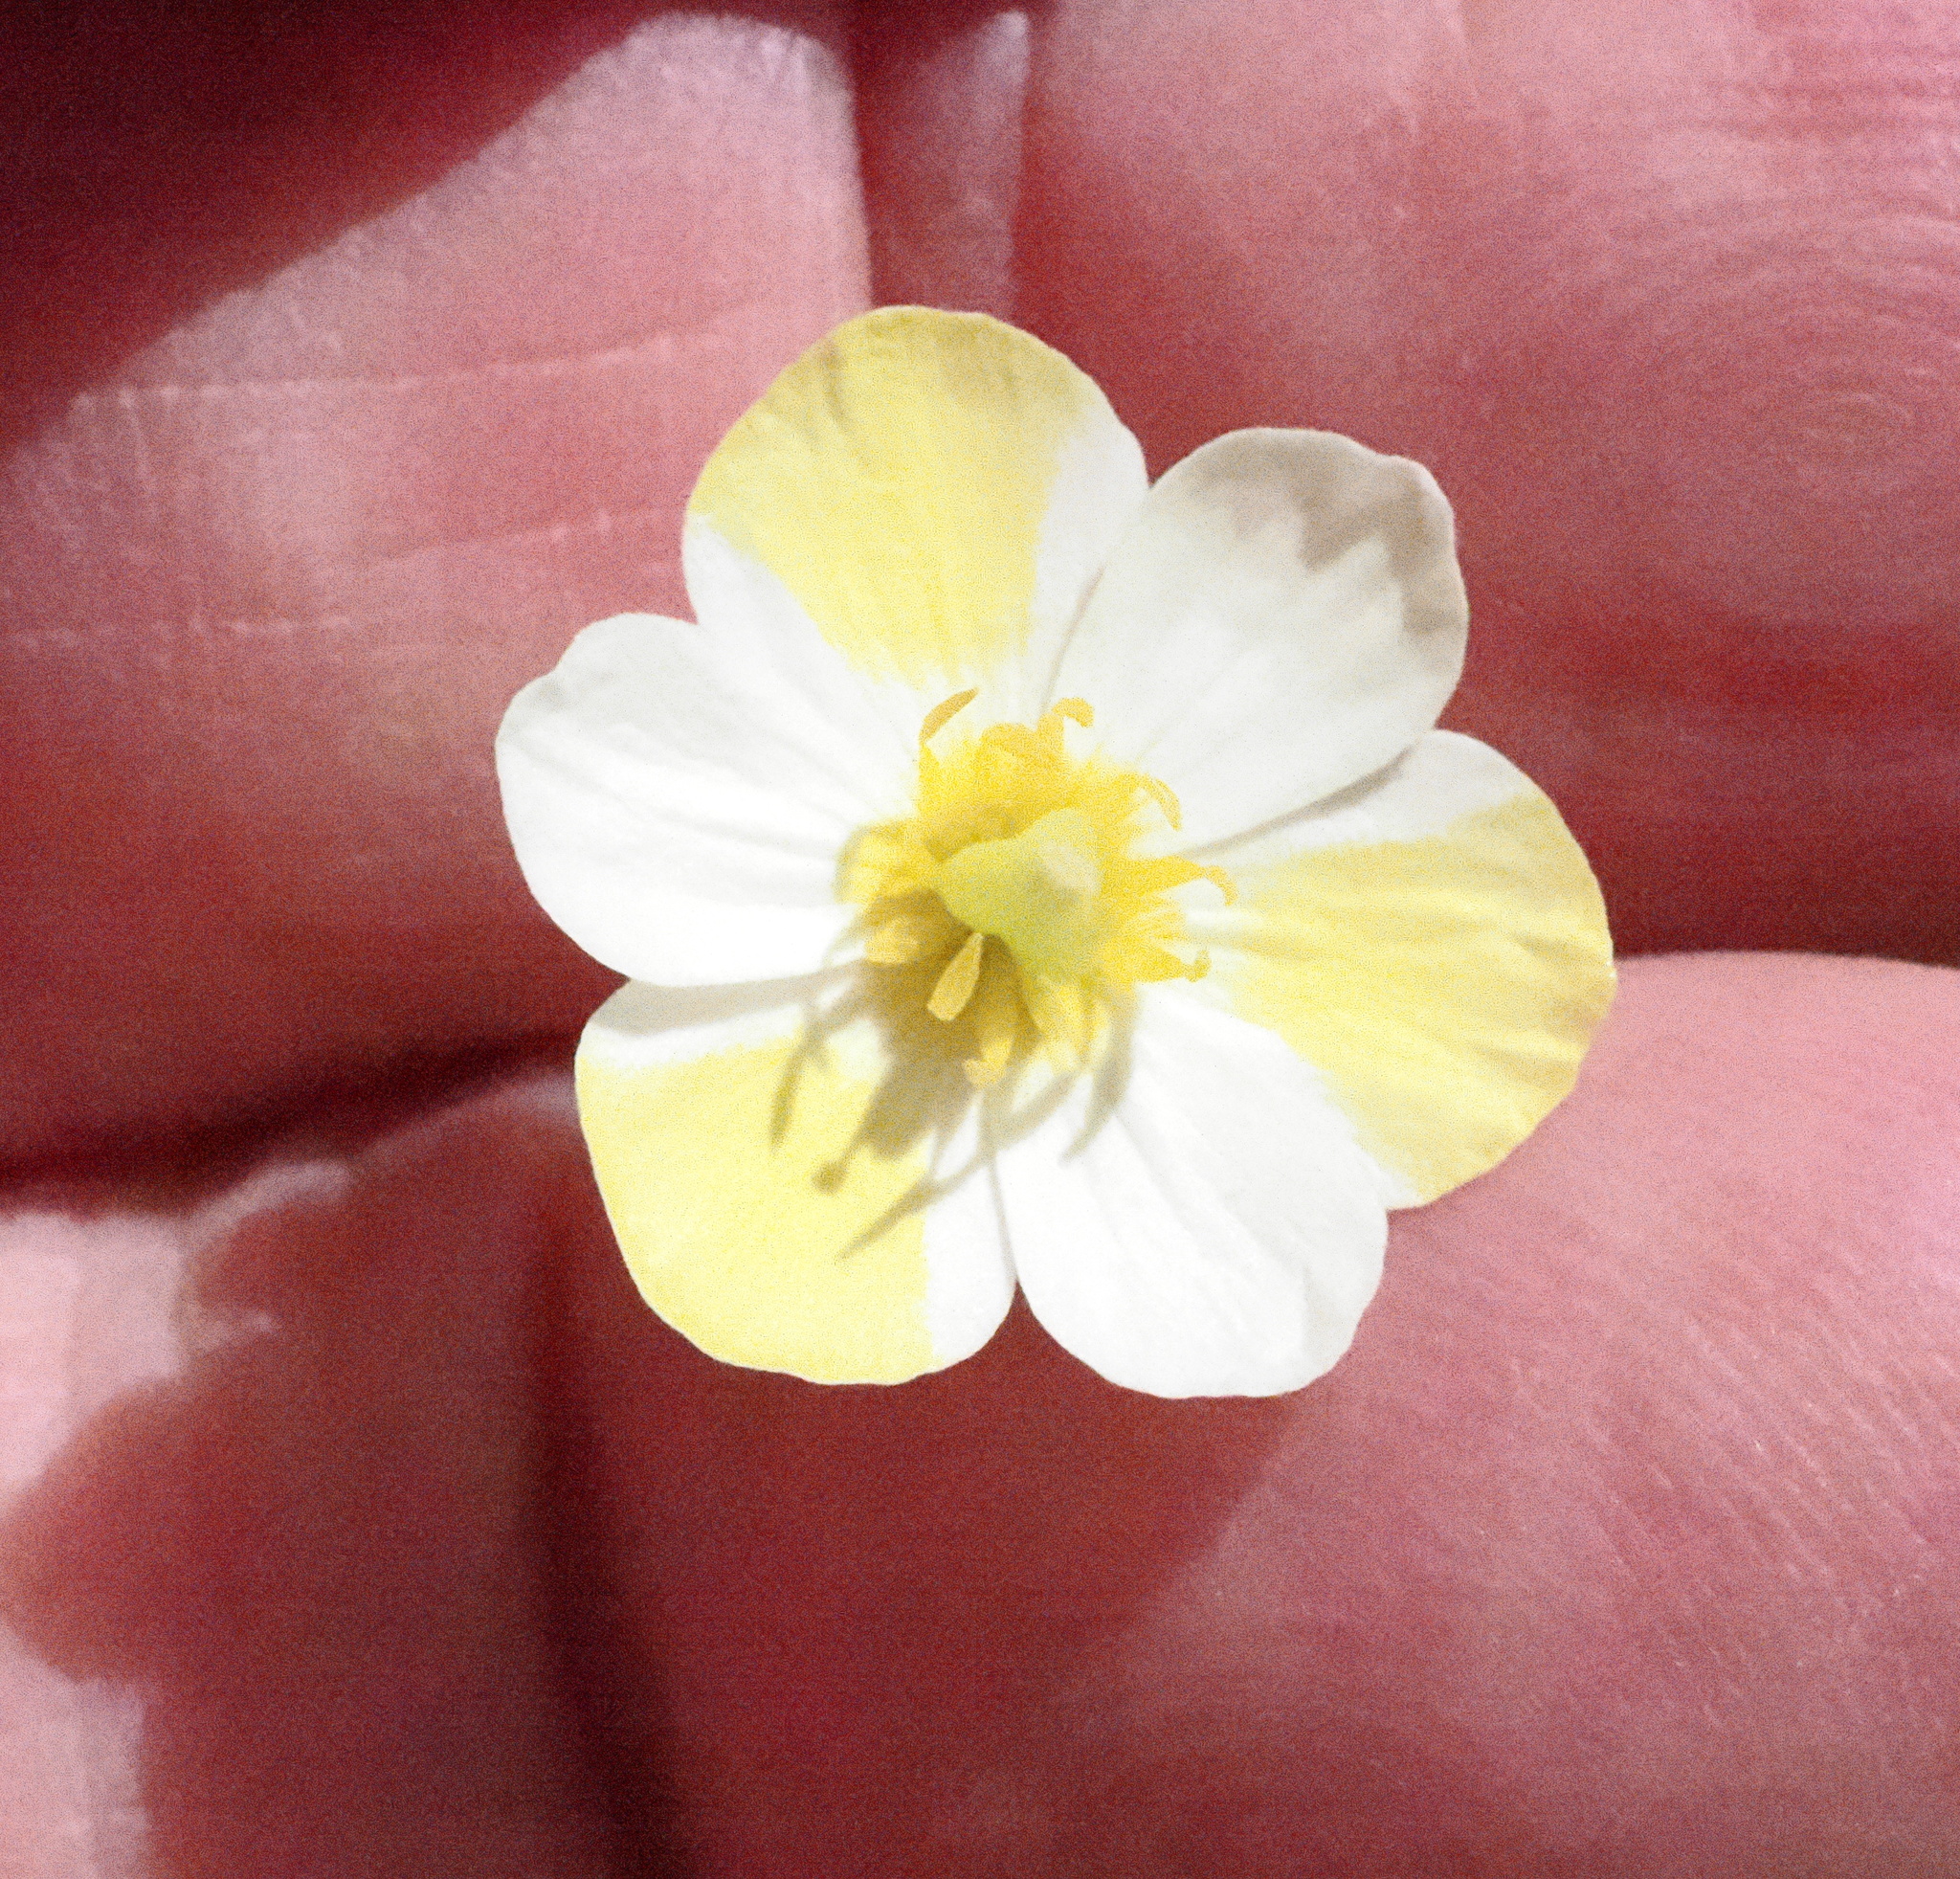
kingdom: Plantae
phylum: Tracheophyta
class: Magnoliopsida
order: Ranunculales
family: Papaveraceae
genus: Platystigma
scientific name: Platystigma lineare
